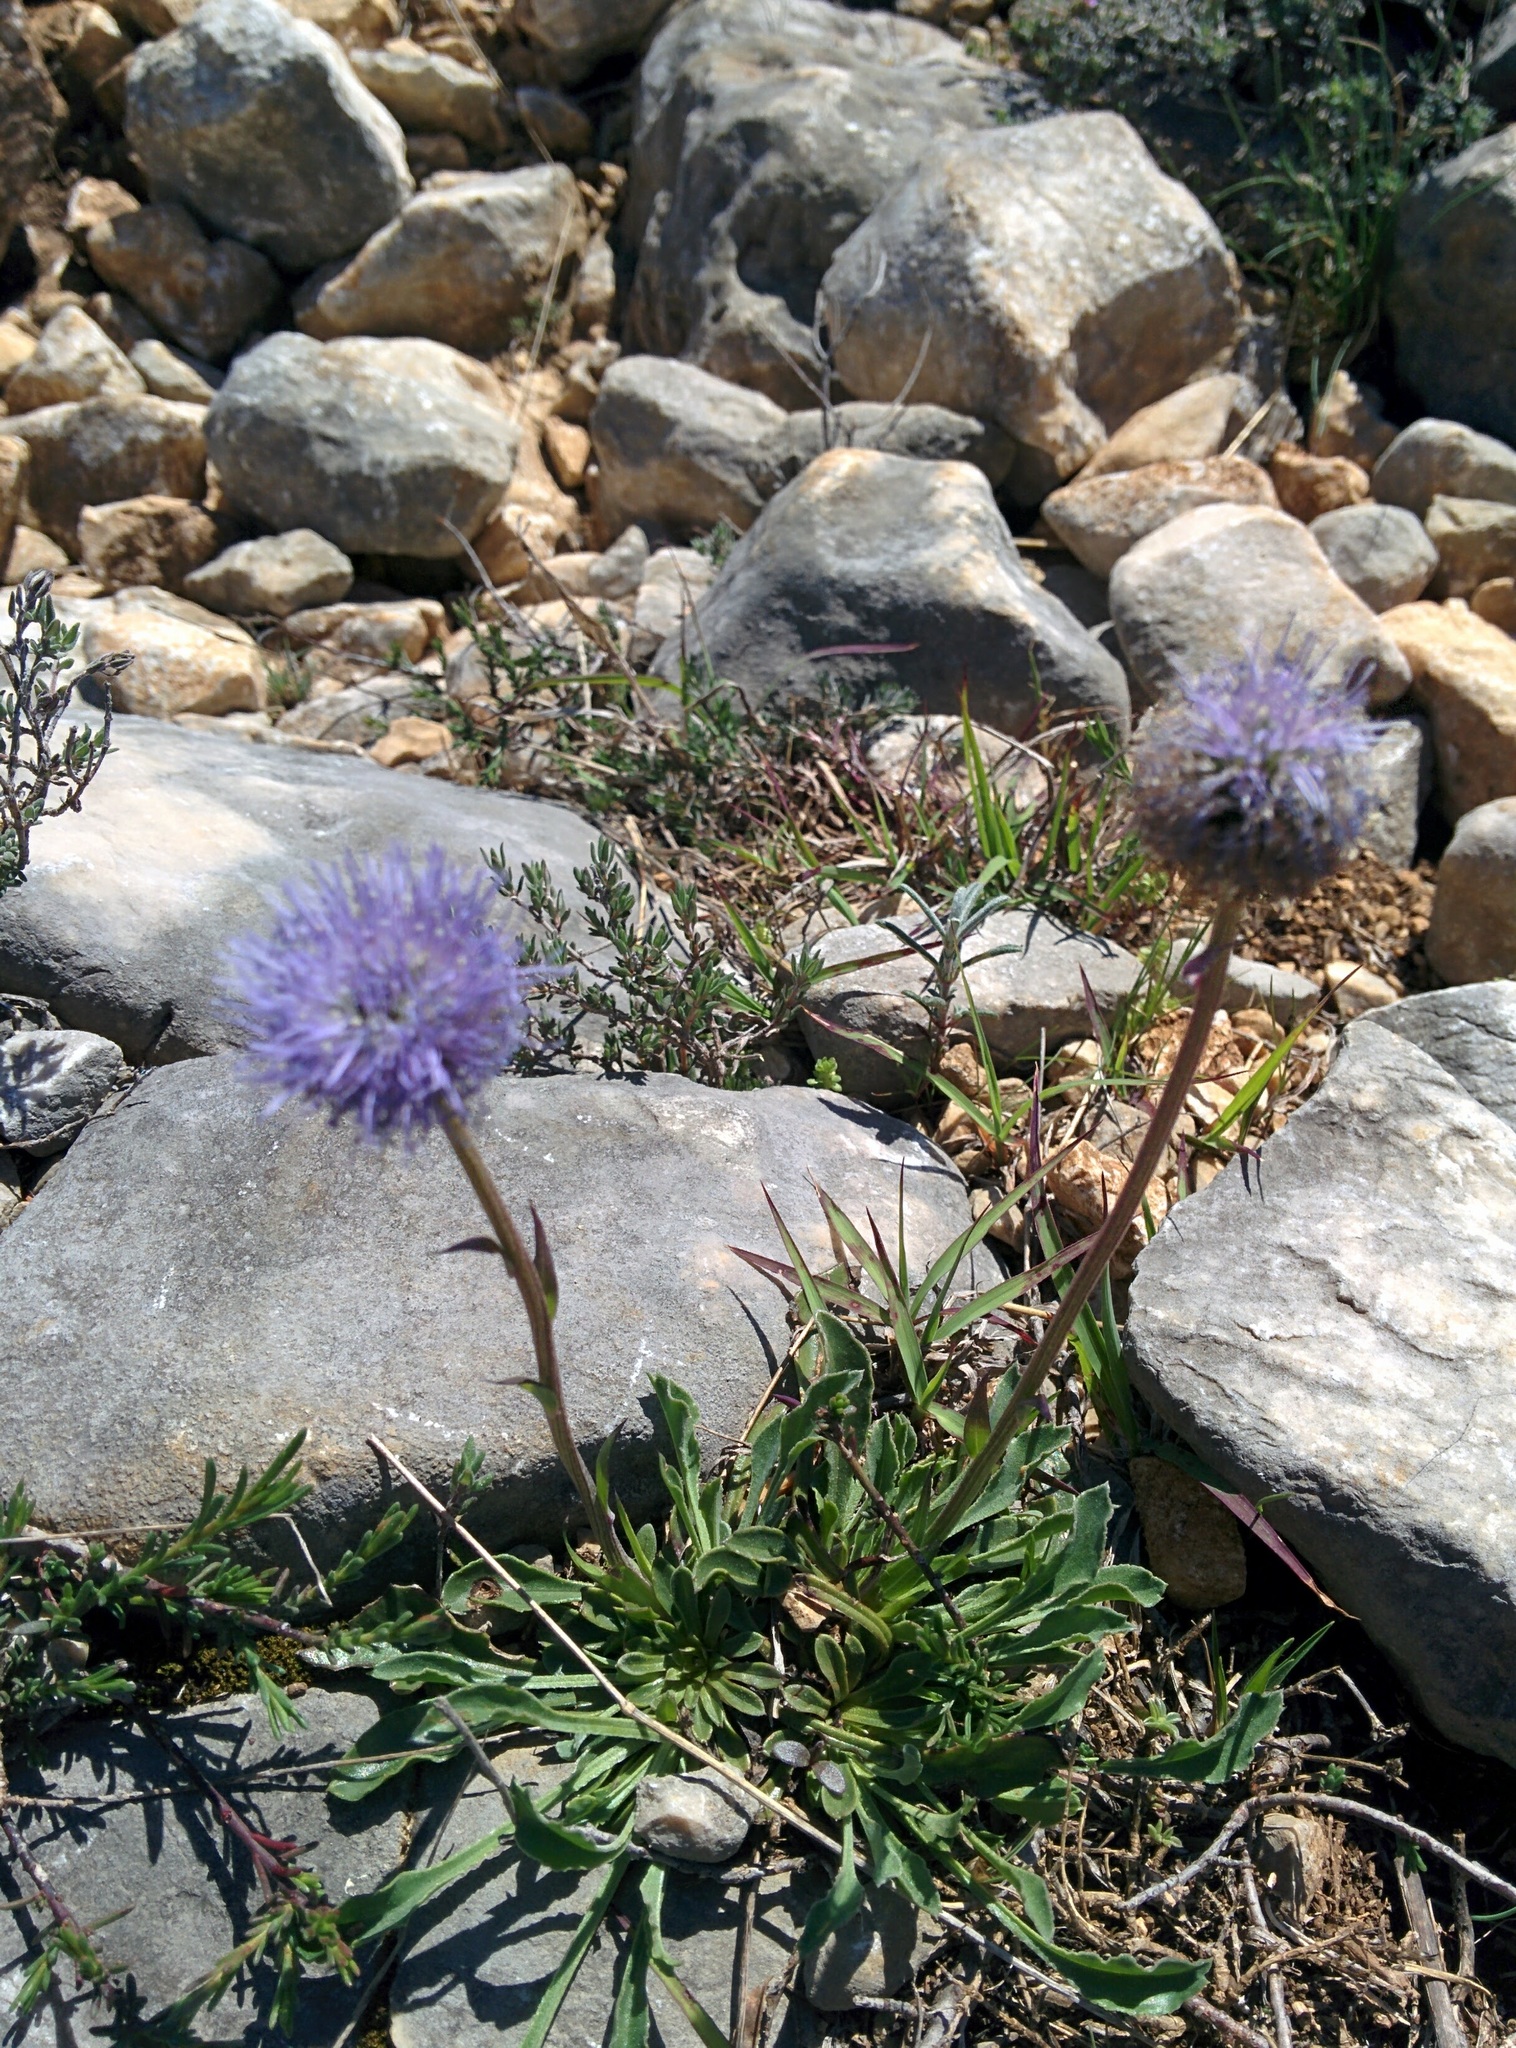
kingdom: Plantae
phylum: Tracheophyta
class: Magnoliopsida
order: Lamiales
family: Plantaginaceae
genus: Globularia
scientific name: Globularia vulgaris
